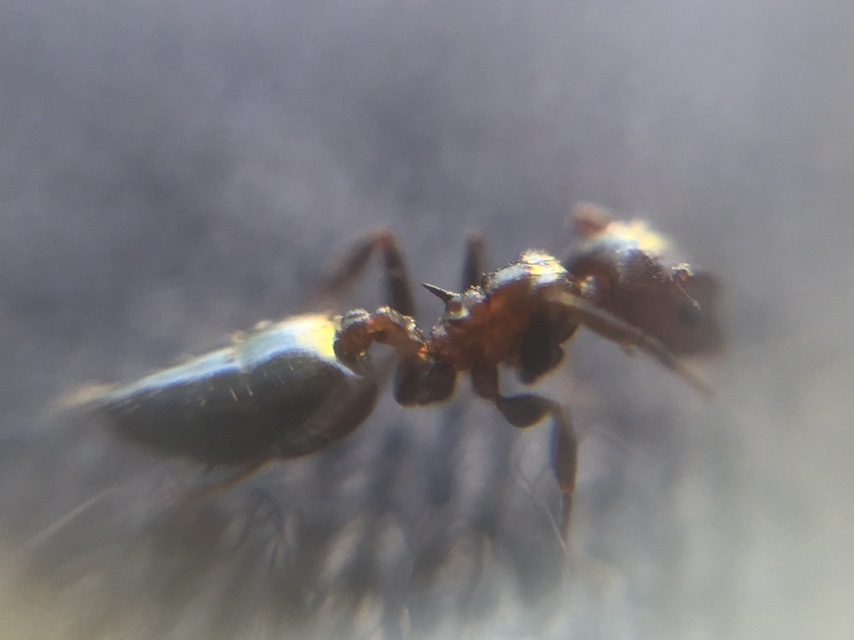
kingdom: Animalia
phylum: Arthropoda
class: Insecta
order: Hymenoptera
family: Formicidae
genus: Crematogaster
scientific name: Crematogaster subnuda
